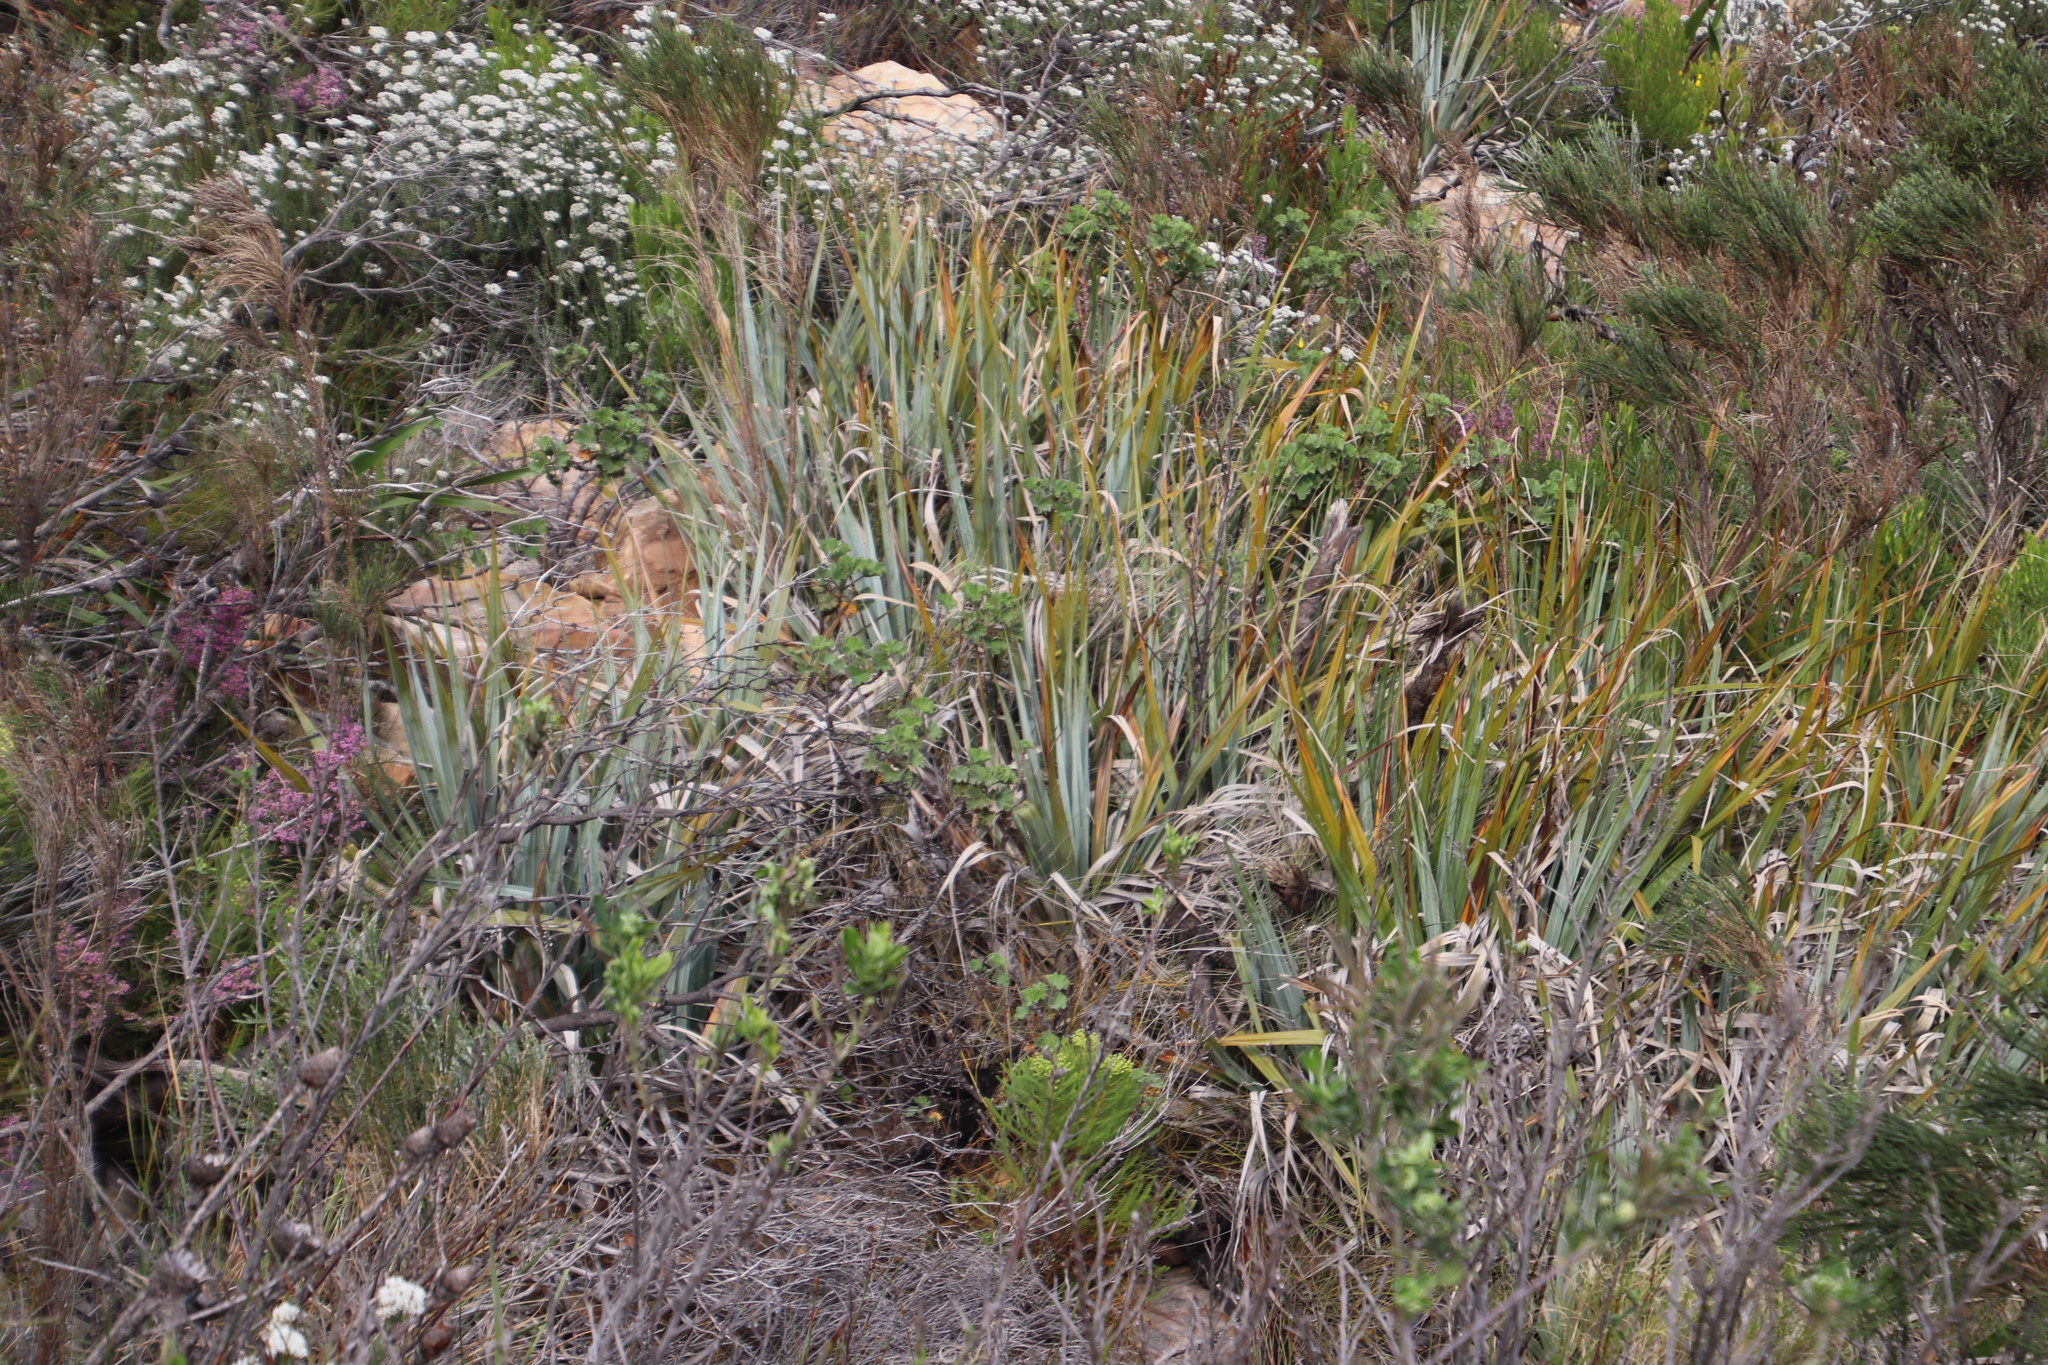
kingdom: Plantae
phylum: Tracheophyta
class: Liliopsida
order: Poales
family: Thurniaceae
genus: Prionium
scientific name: Prionium serratum
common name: Palmiet
